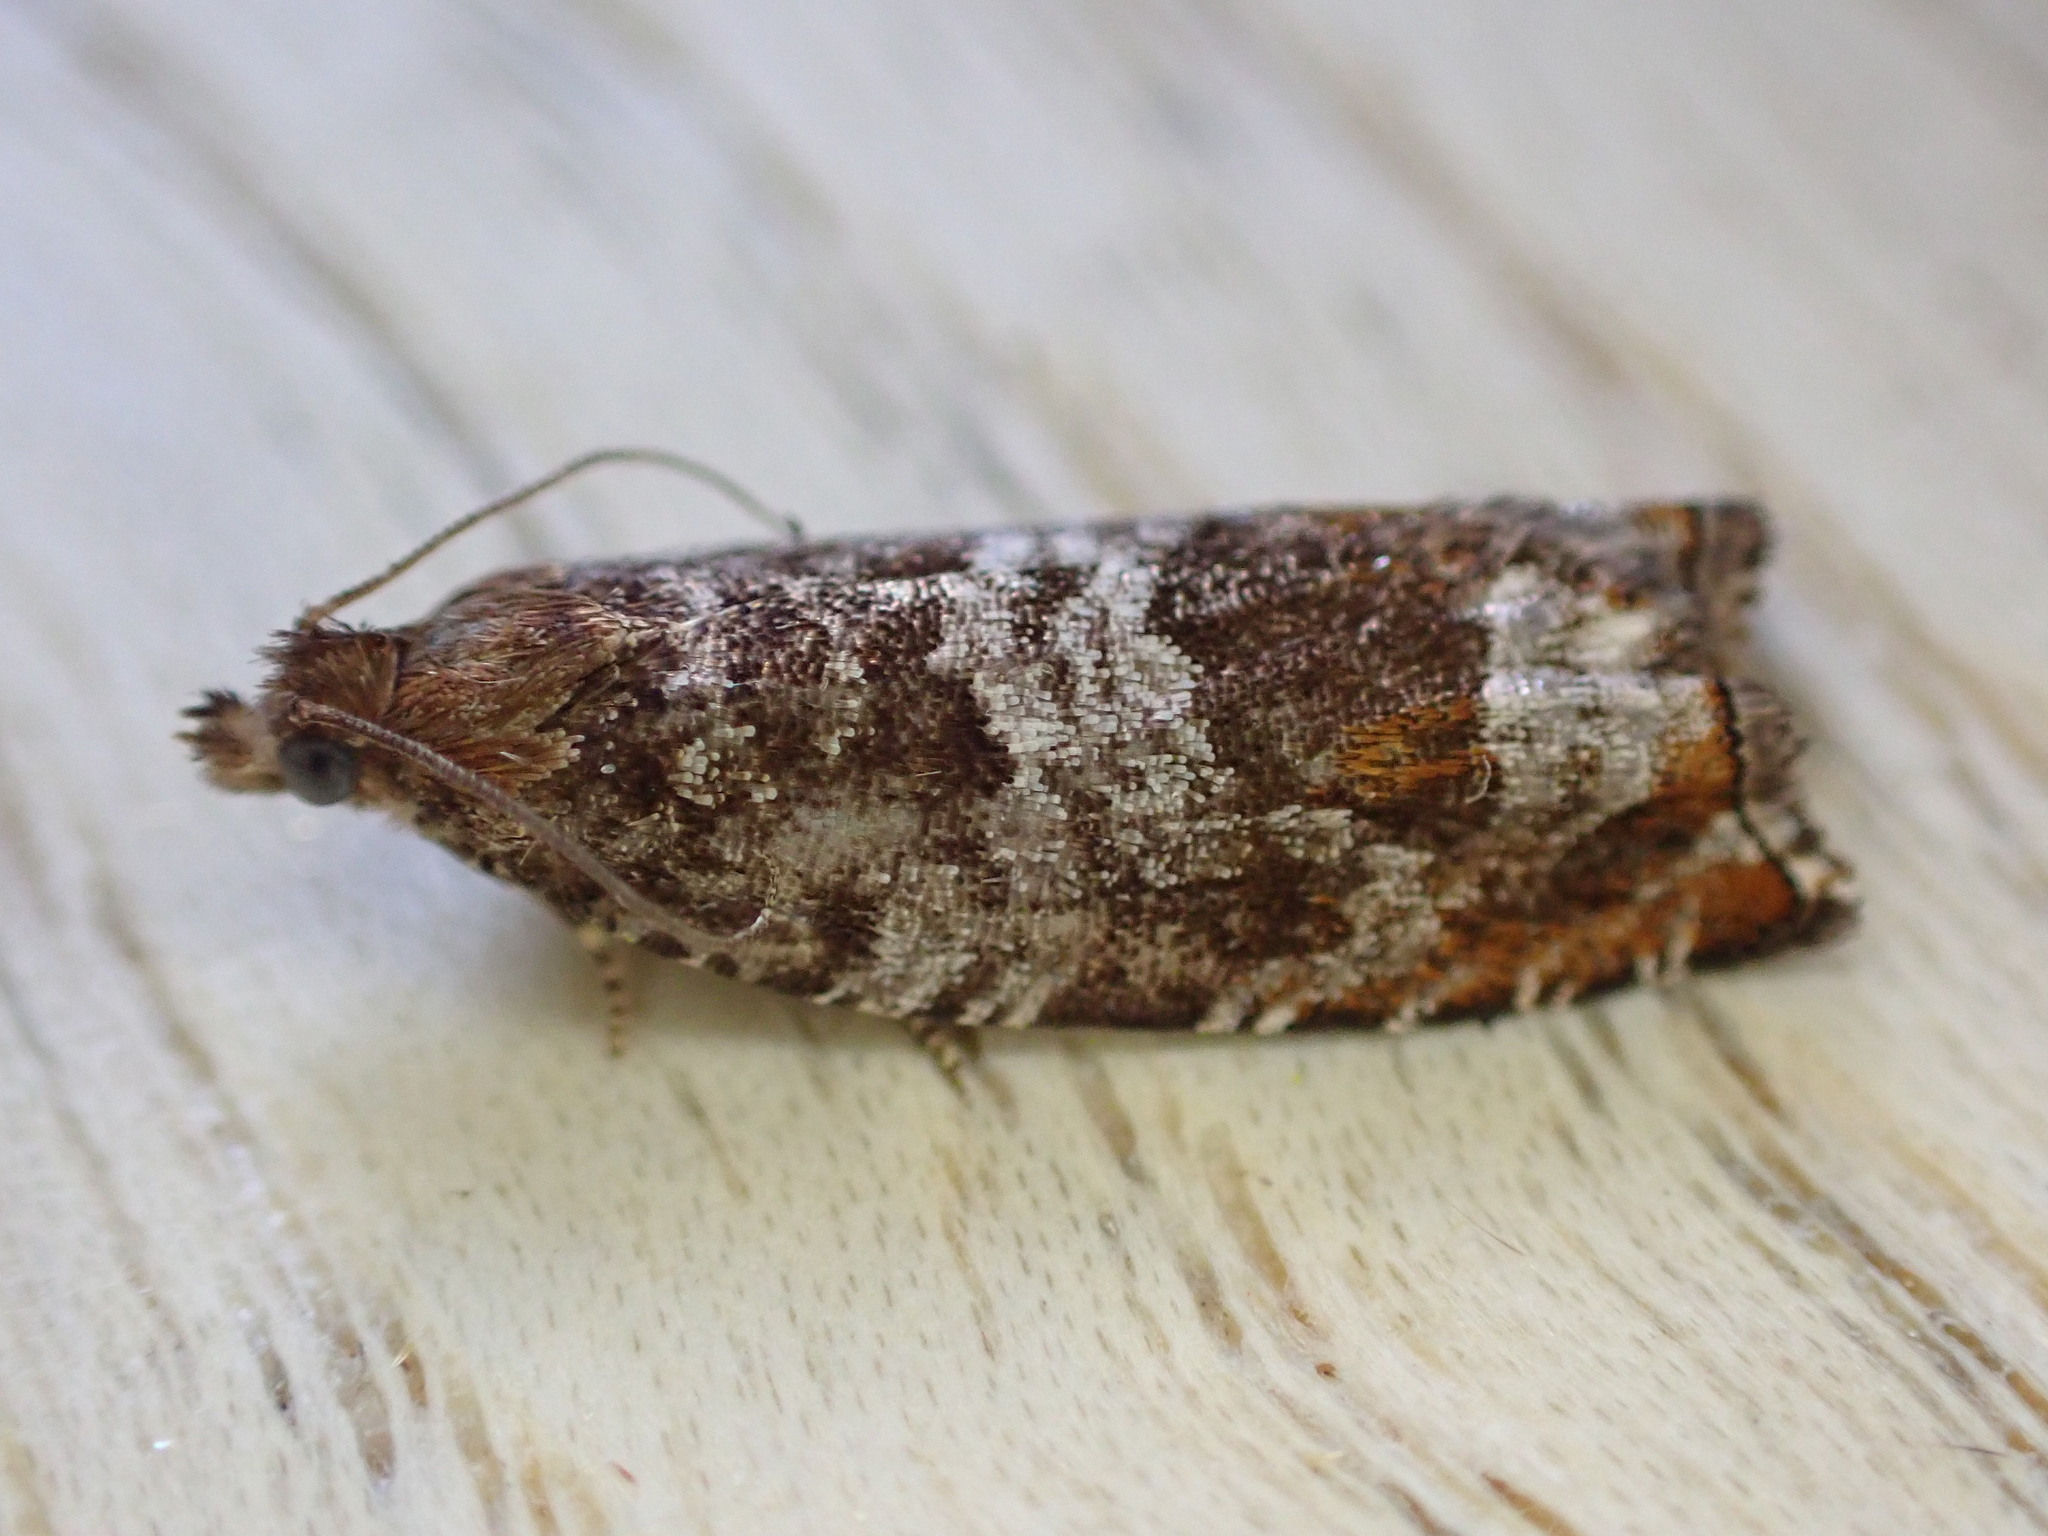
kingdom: Animalia
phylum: Arthropoda
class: Insecta
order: Lepidoptera
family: Tortricidae
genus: Ancylis
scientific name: Ancylis achatana
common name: Triangle-marked roller
